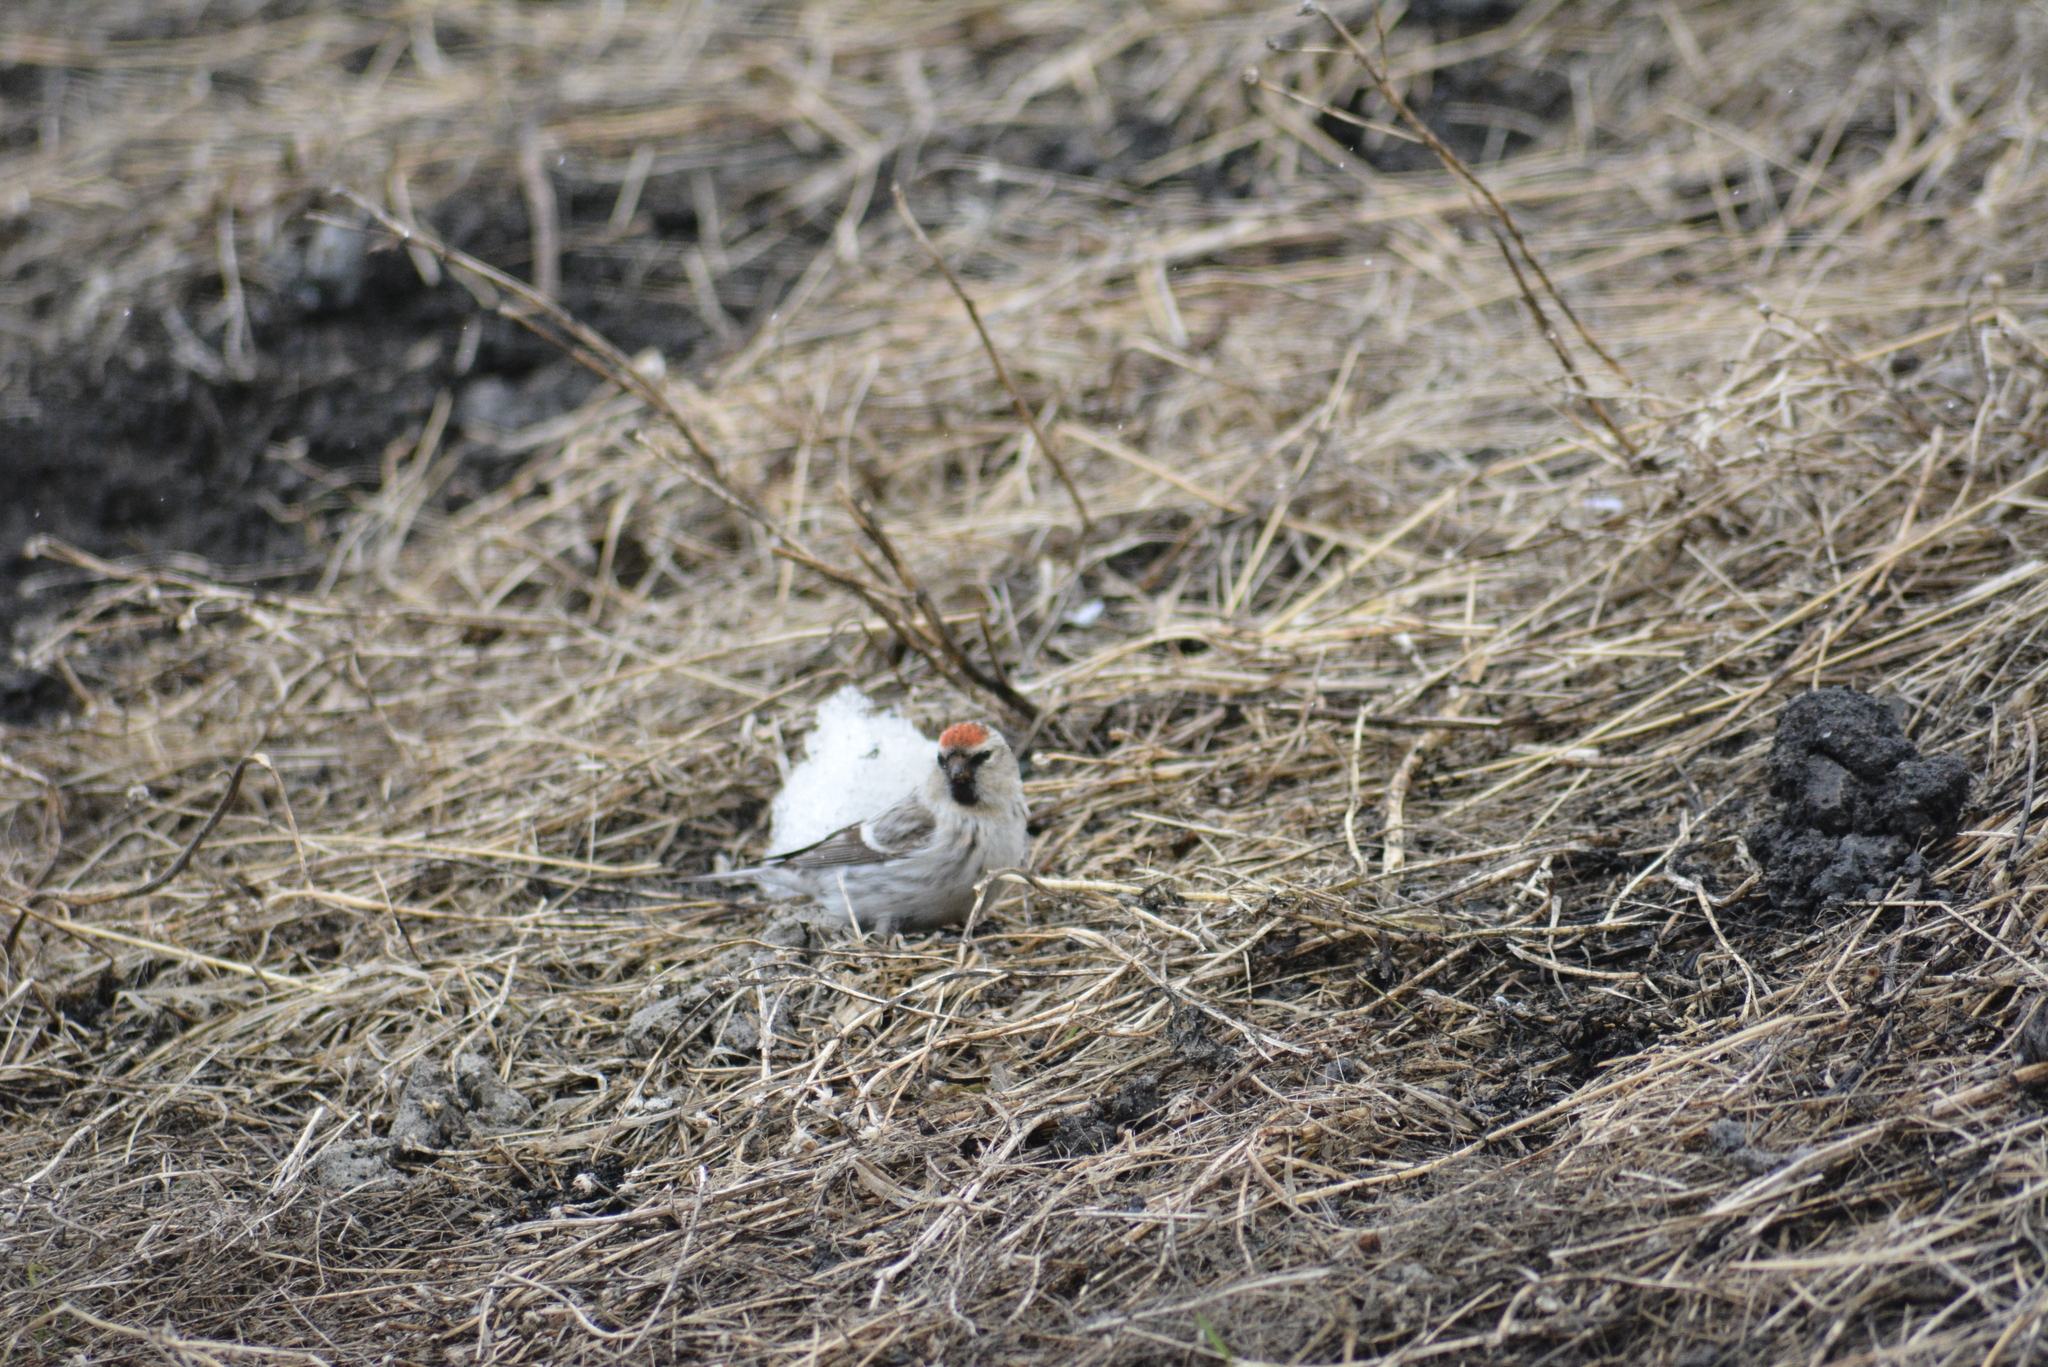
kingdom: Animalia
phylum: Chordata
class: Aves
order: Passeriformes
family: Fringillidae
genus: Acanthis
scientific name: Acanthis hornemanni
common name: Arctic redpoll
